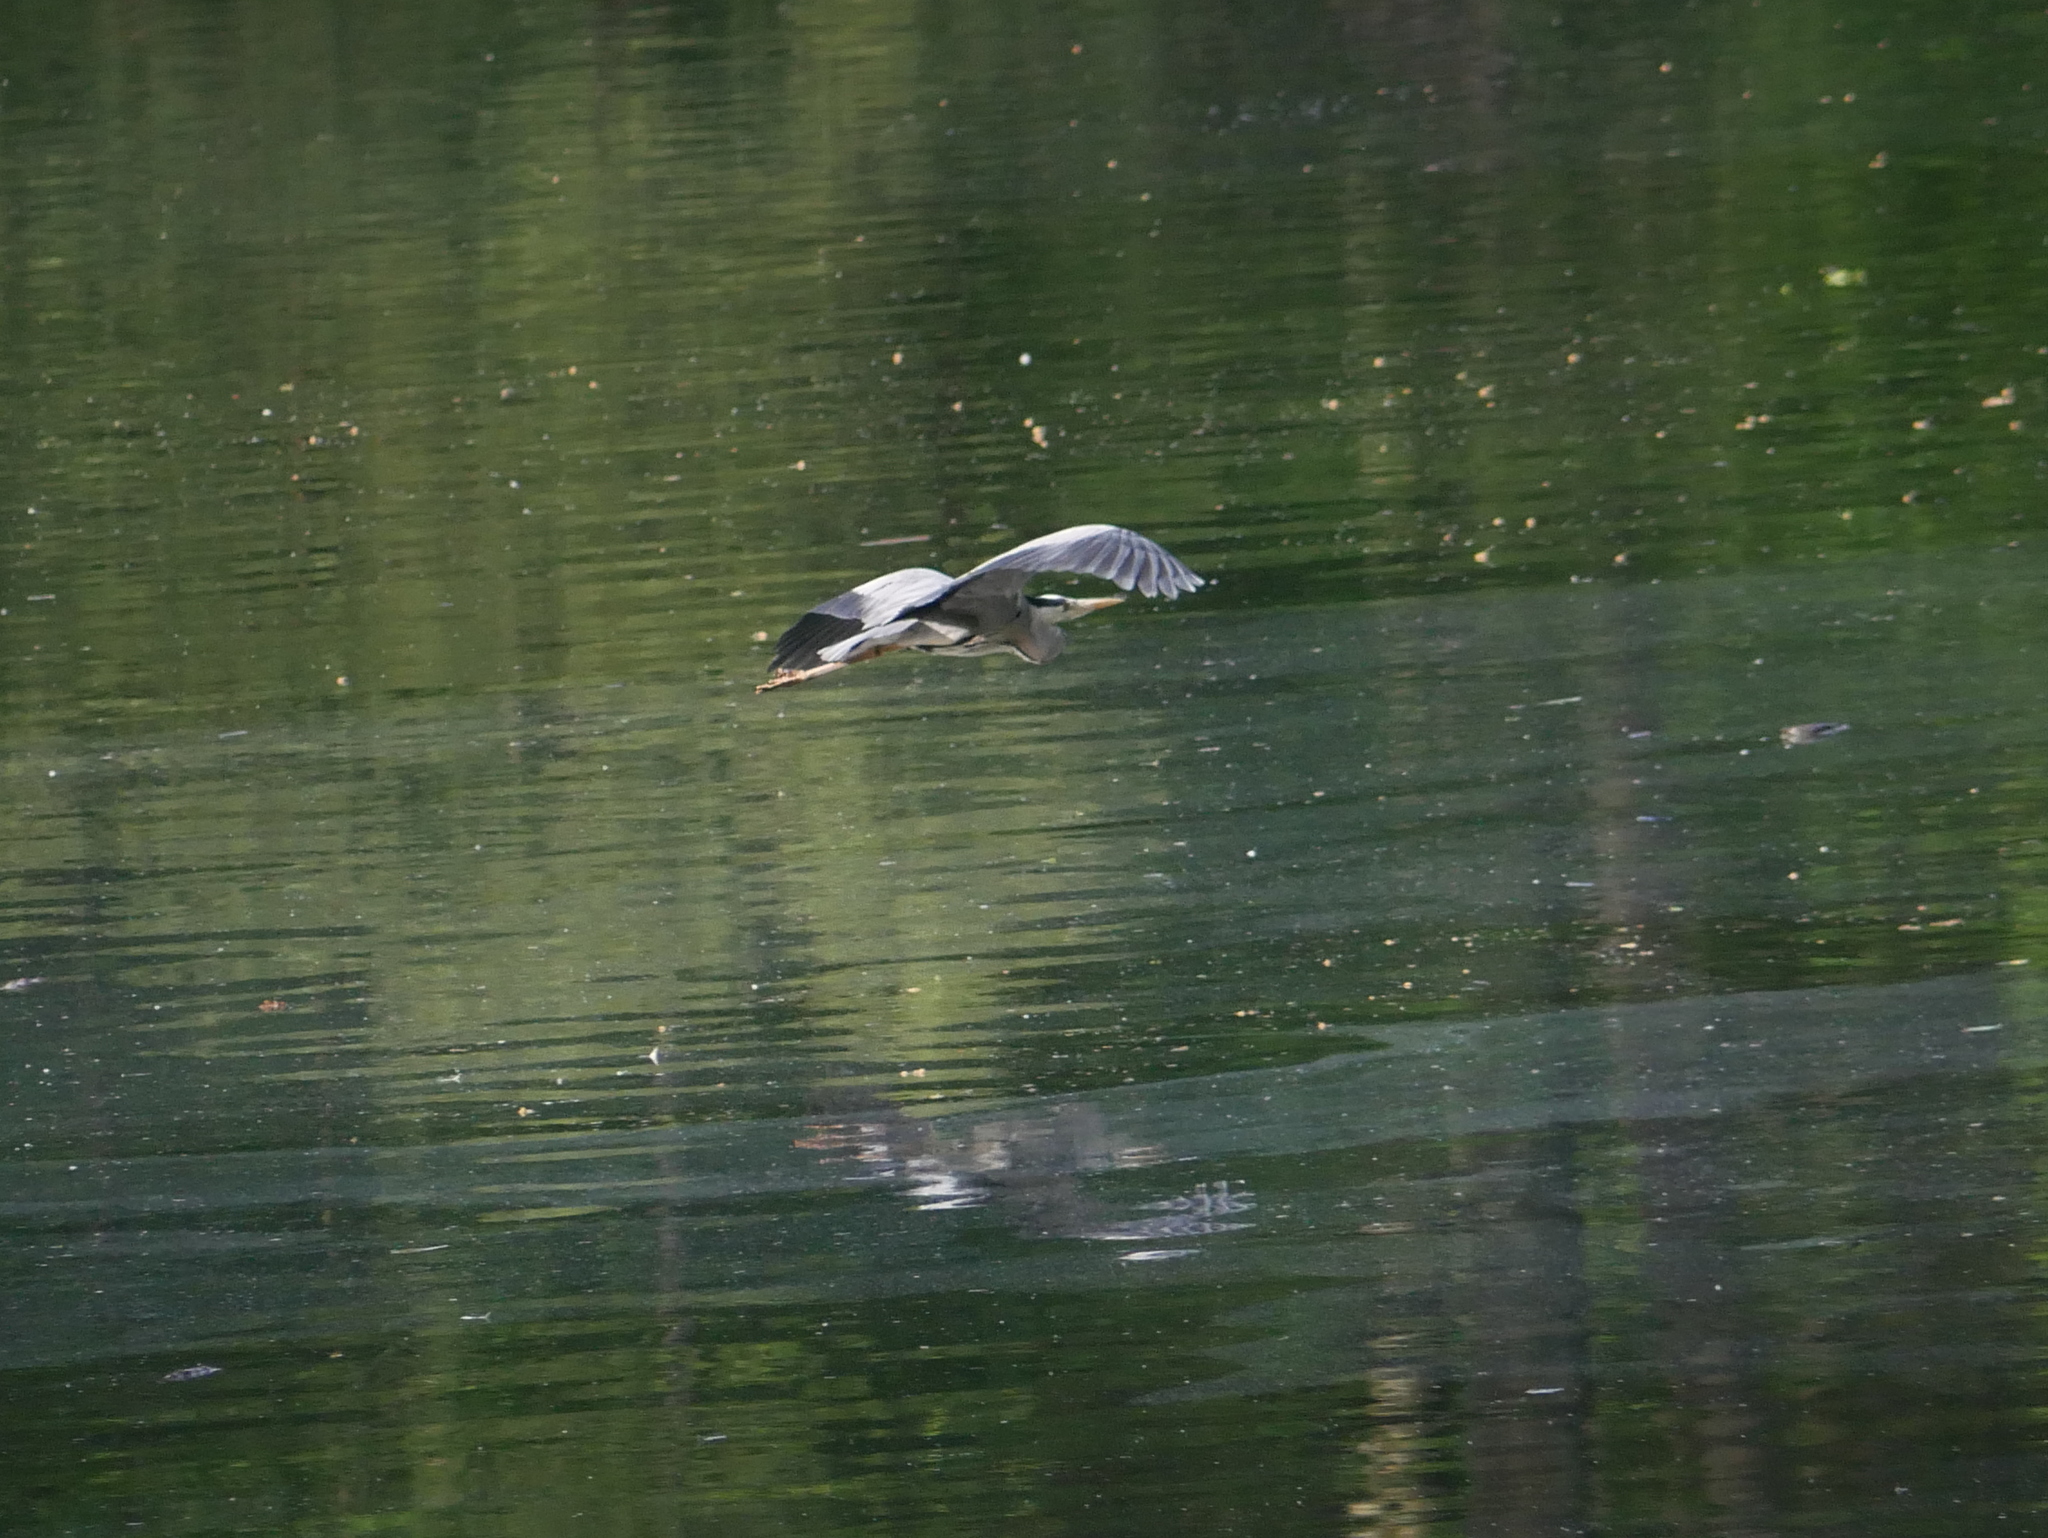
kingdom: Animalia
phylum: Chordata
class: Aves
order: Pelecaniformes
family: Ardeidae
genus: Ardea
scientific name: Ardea cinerea
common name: Grey heron
